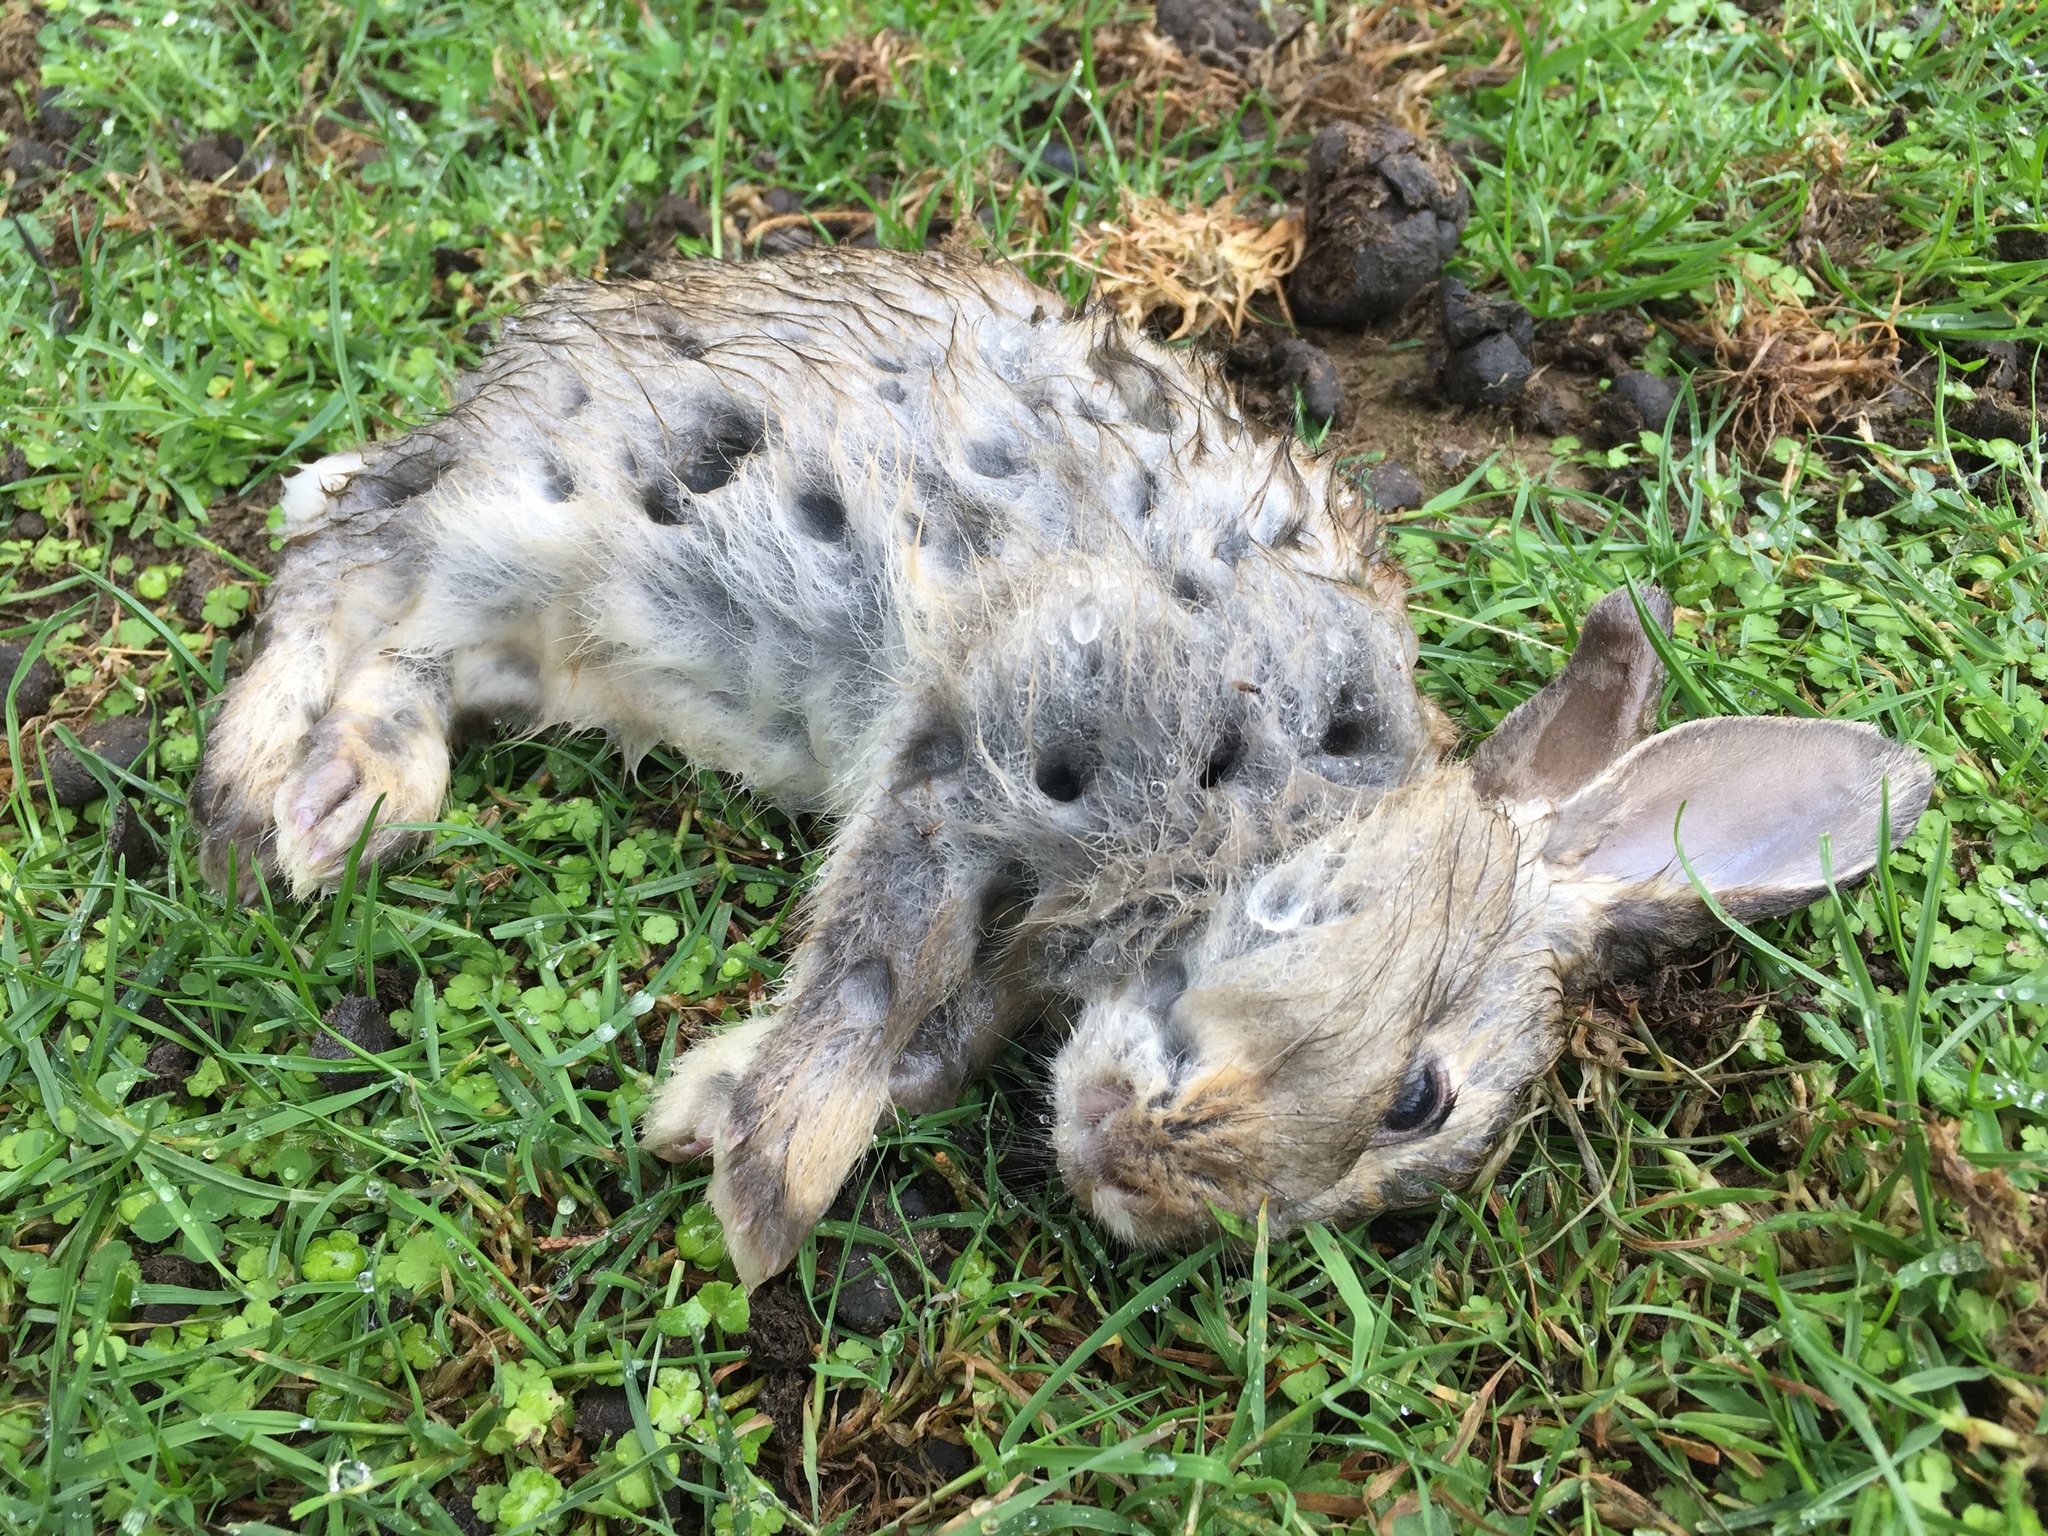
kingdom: Animalia
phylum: Chordata
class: Mammalia
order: Lagomorpha
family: Leporidae
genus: Oryctolagus
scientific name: Oryctolagus cuniculus
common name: European rabbit
